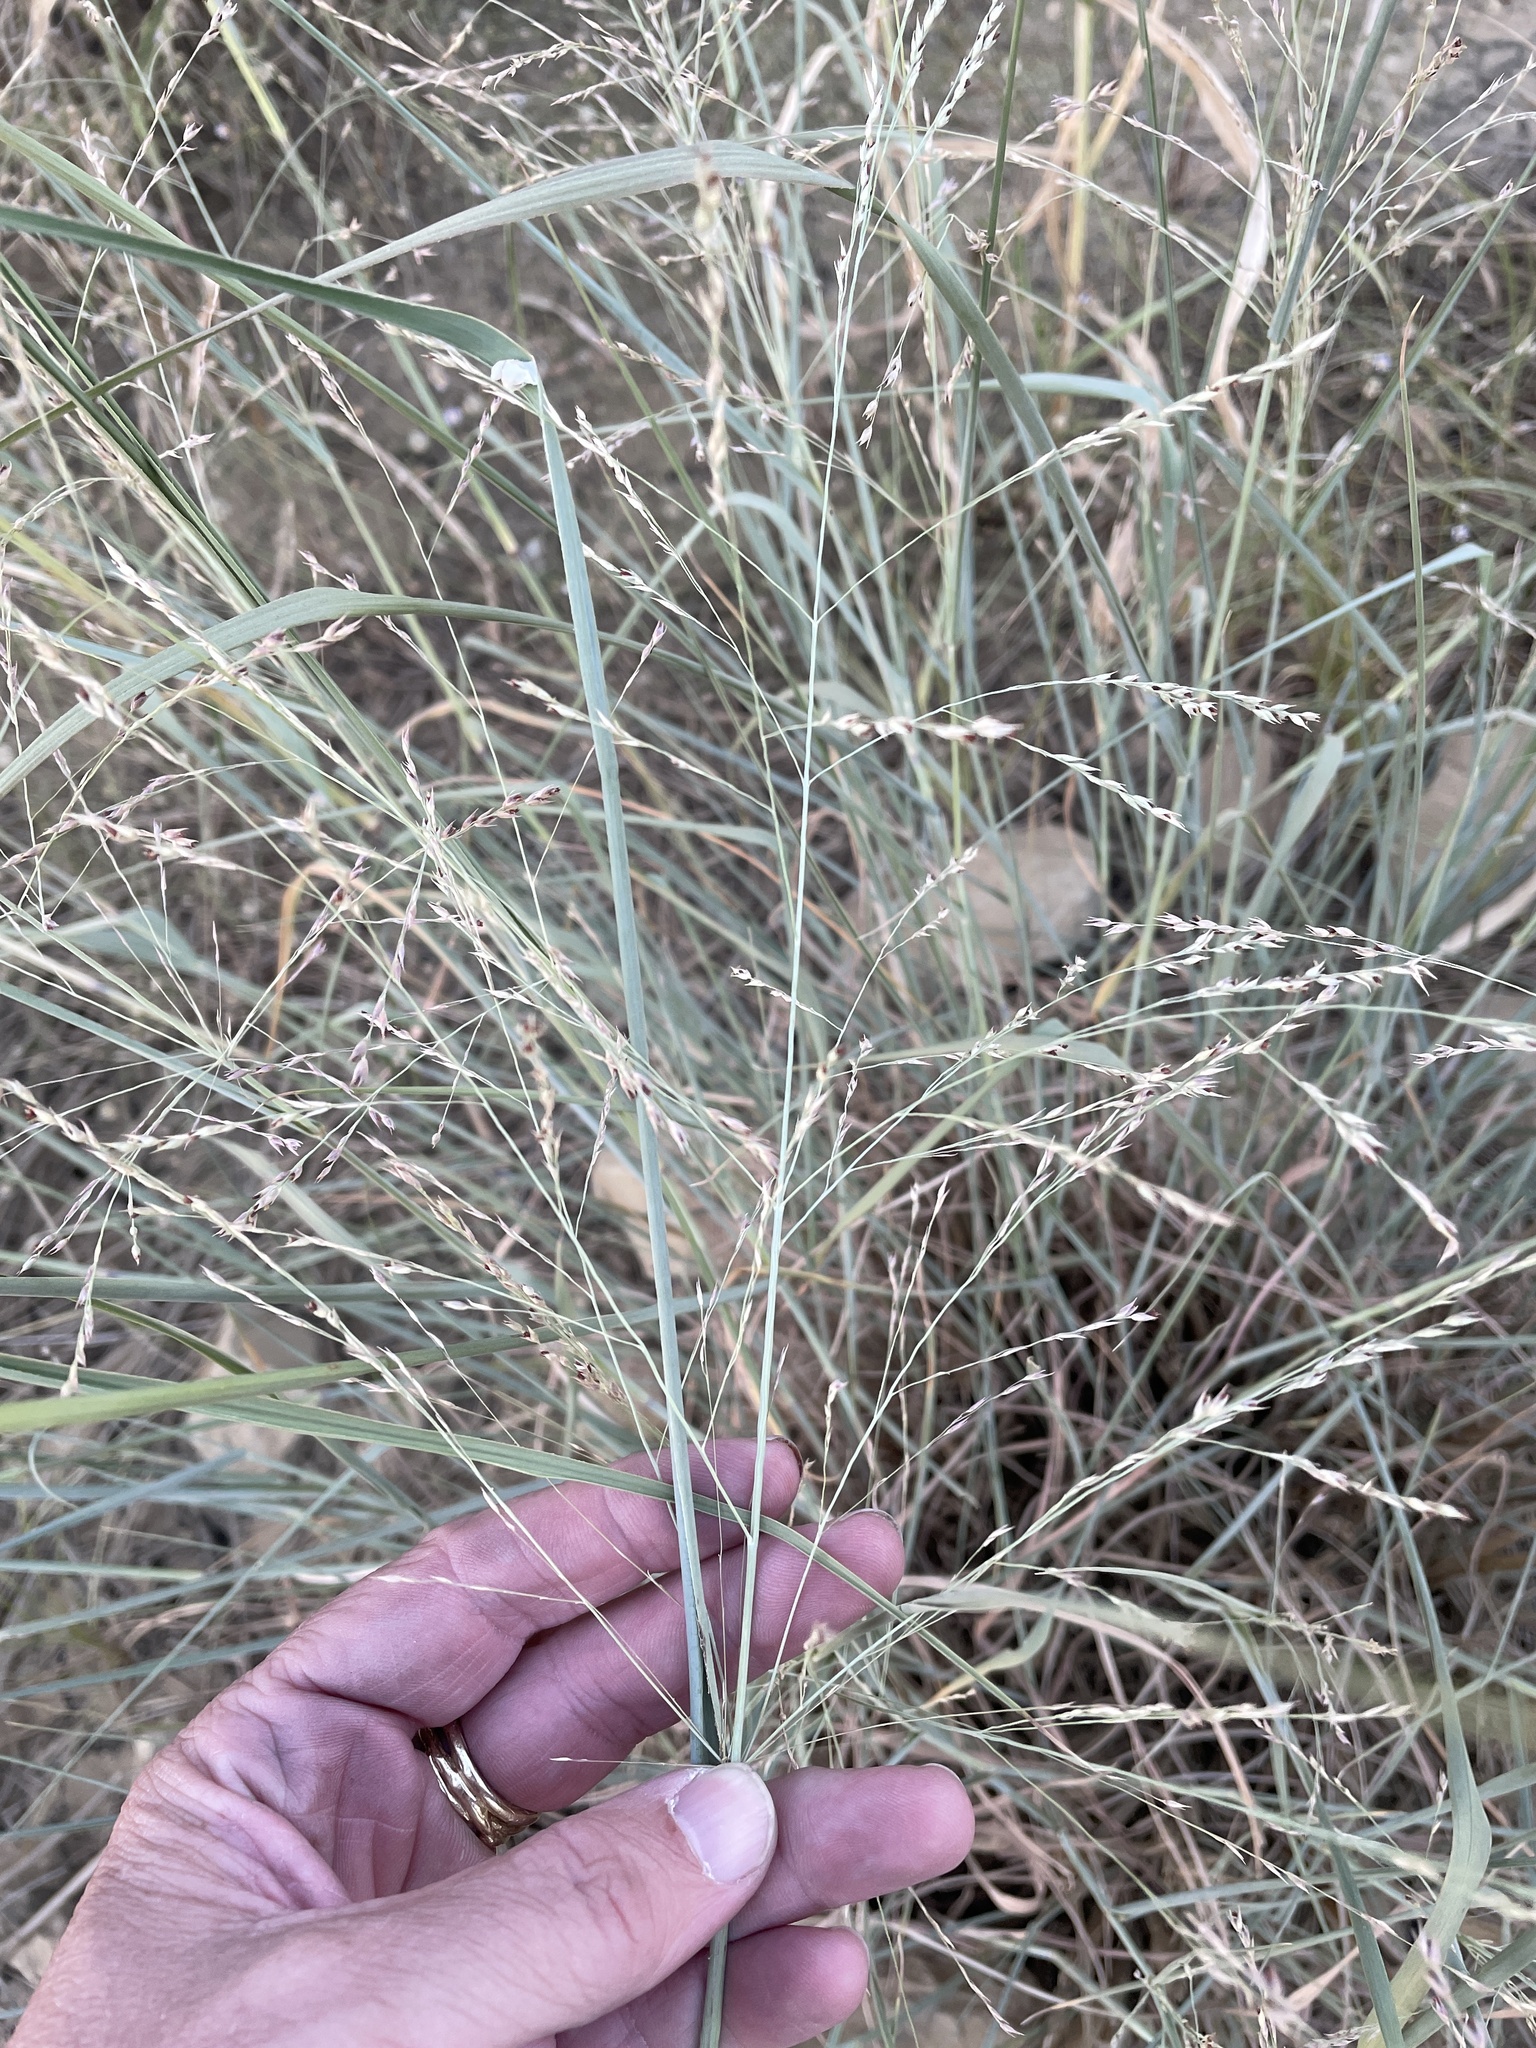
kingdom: Plantae
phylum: Tracheophyta
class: Liliopsida
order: Poales
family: Poaceae
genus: Panicum
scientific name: Panicum virgatum
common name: Switchgrass
